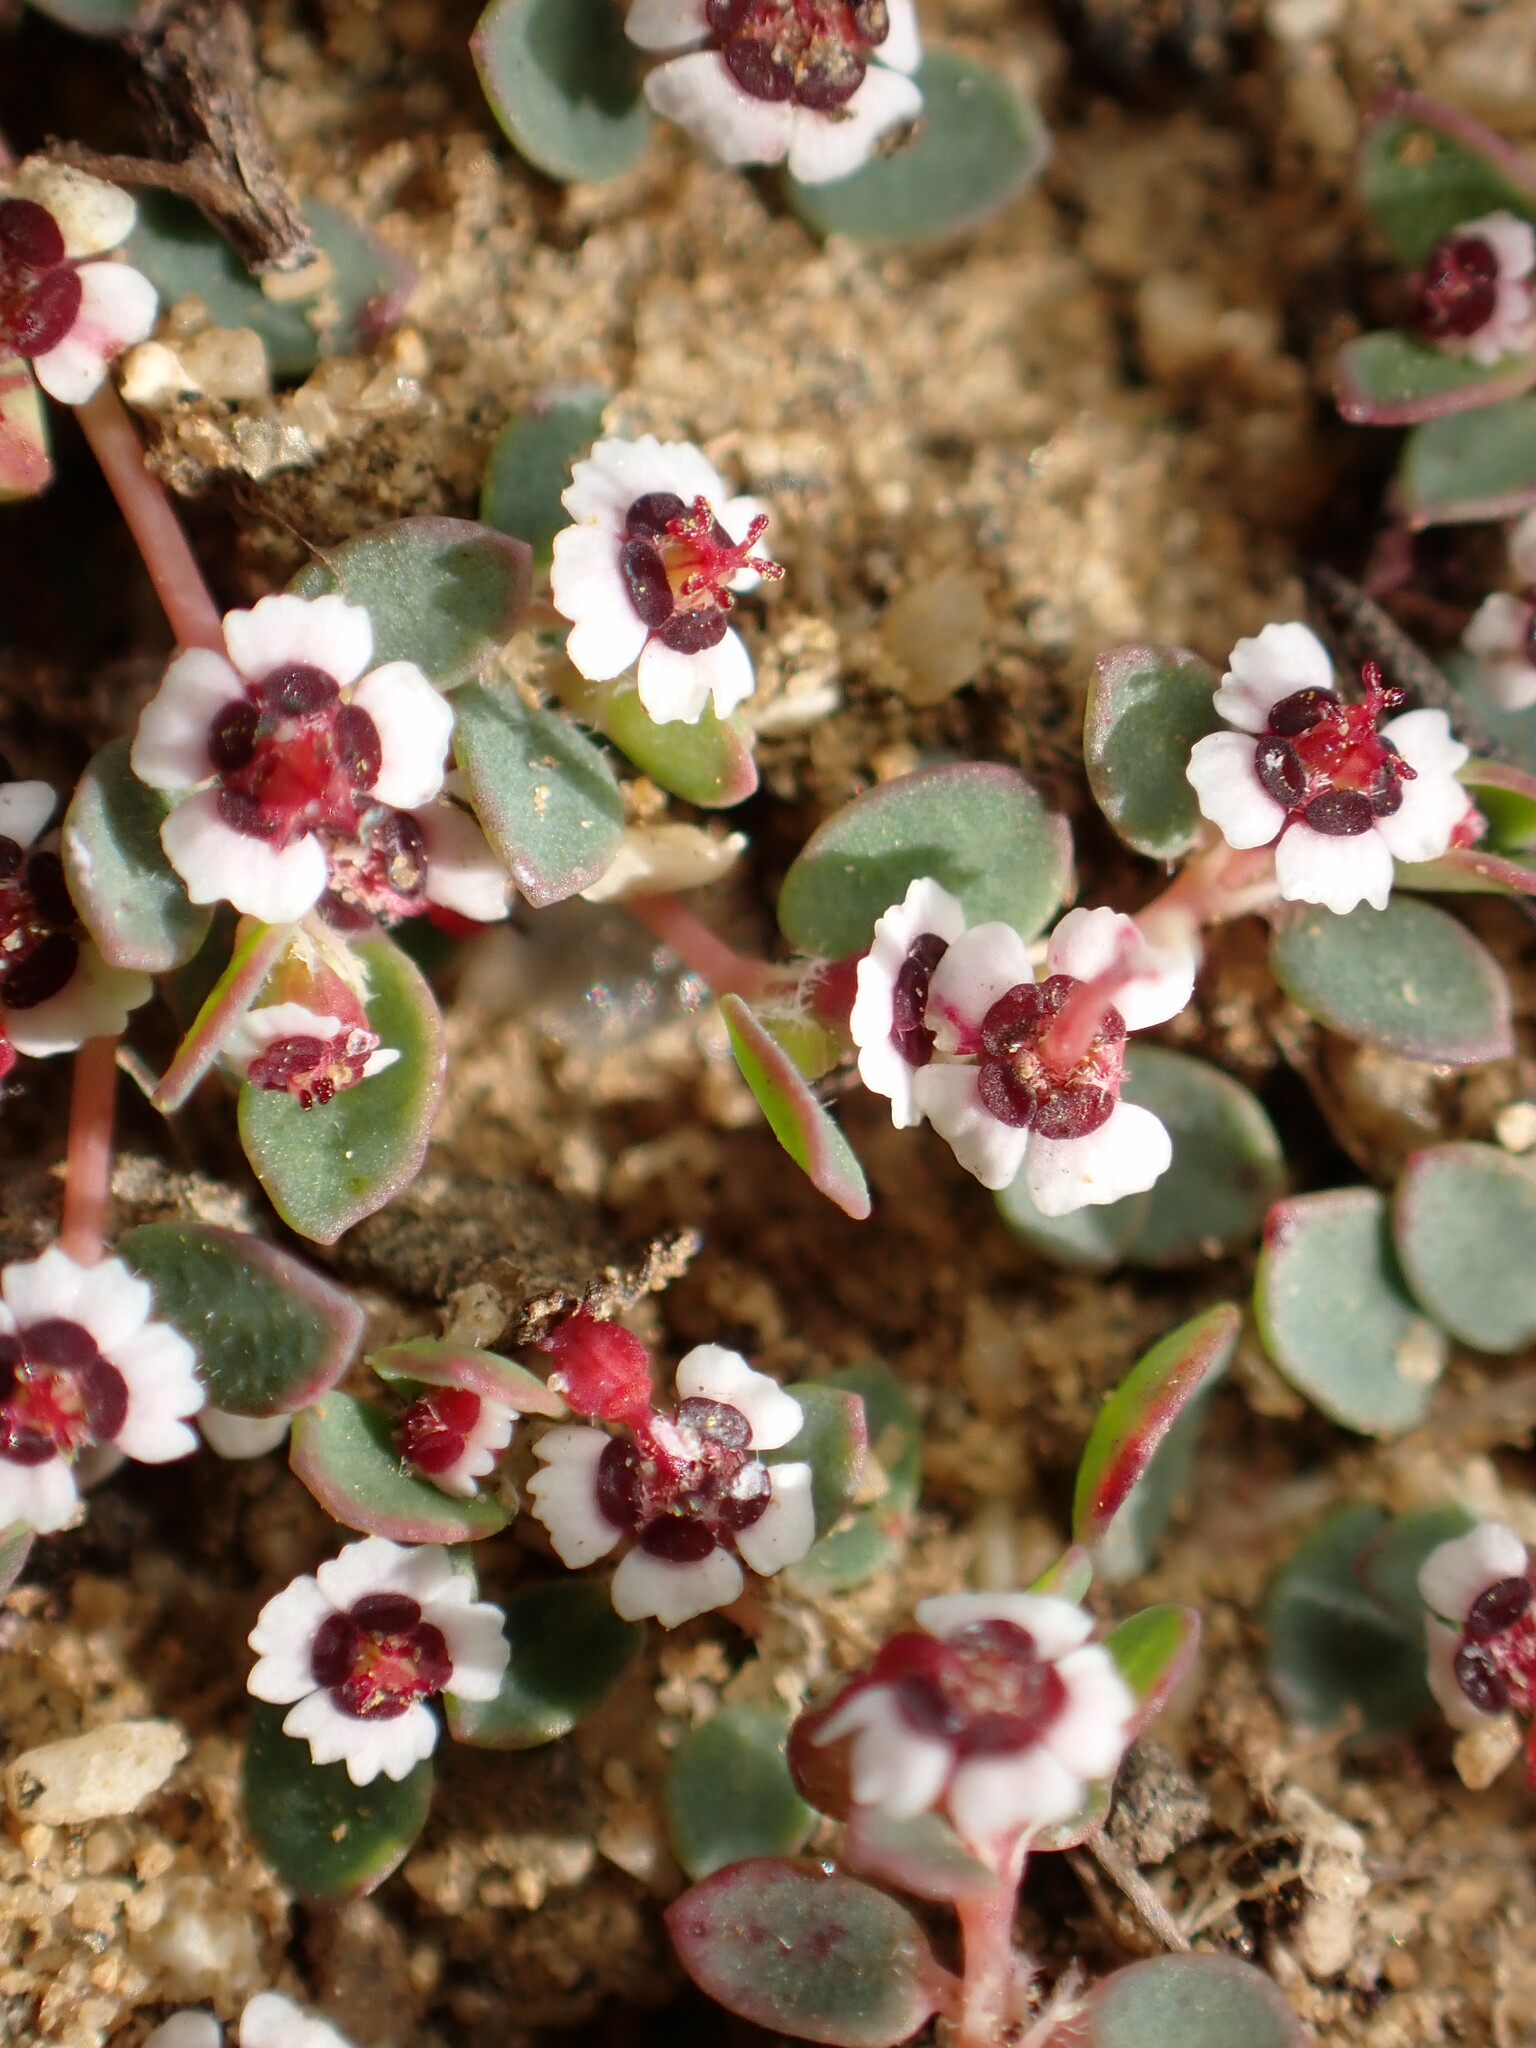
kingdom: Plantae
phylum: Tracheophyta
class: Magnoliopsida
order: Malpighiales
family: Euphorbiaceae
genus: Euphorbia
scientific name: Euphorbia polycarpa
